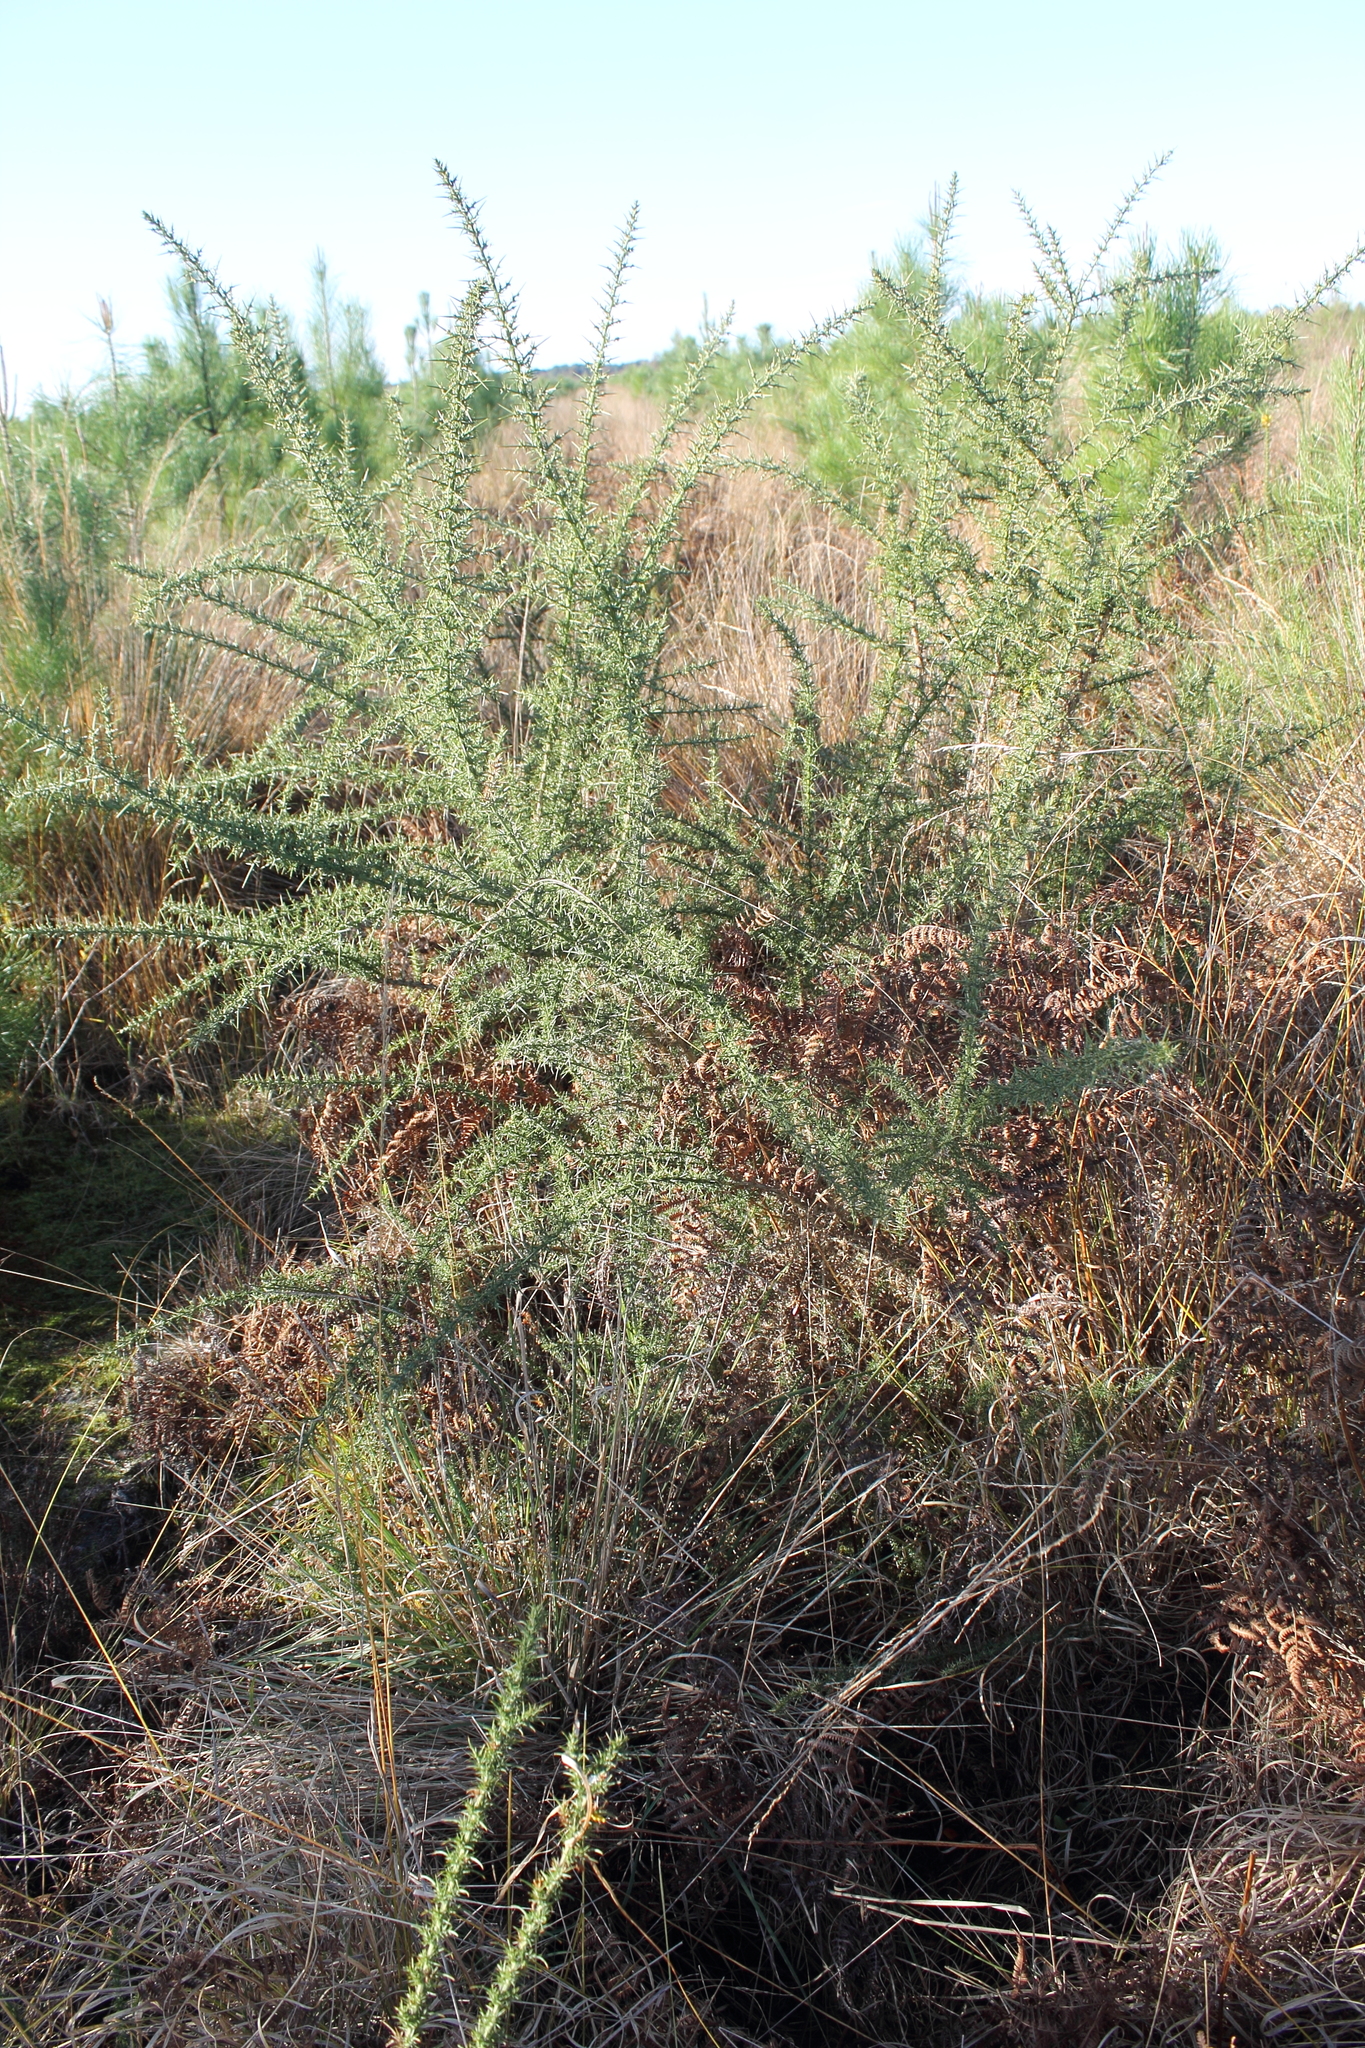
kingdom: Plantae
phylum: Tracheophyta
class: Magnoliopsida
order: Fabales
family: Fabaceae
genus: Ulex
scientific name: Ulex europaeus
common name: Common gorse
